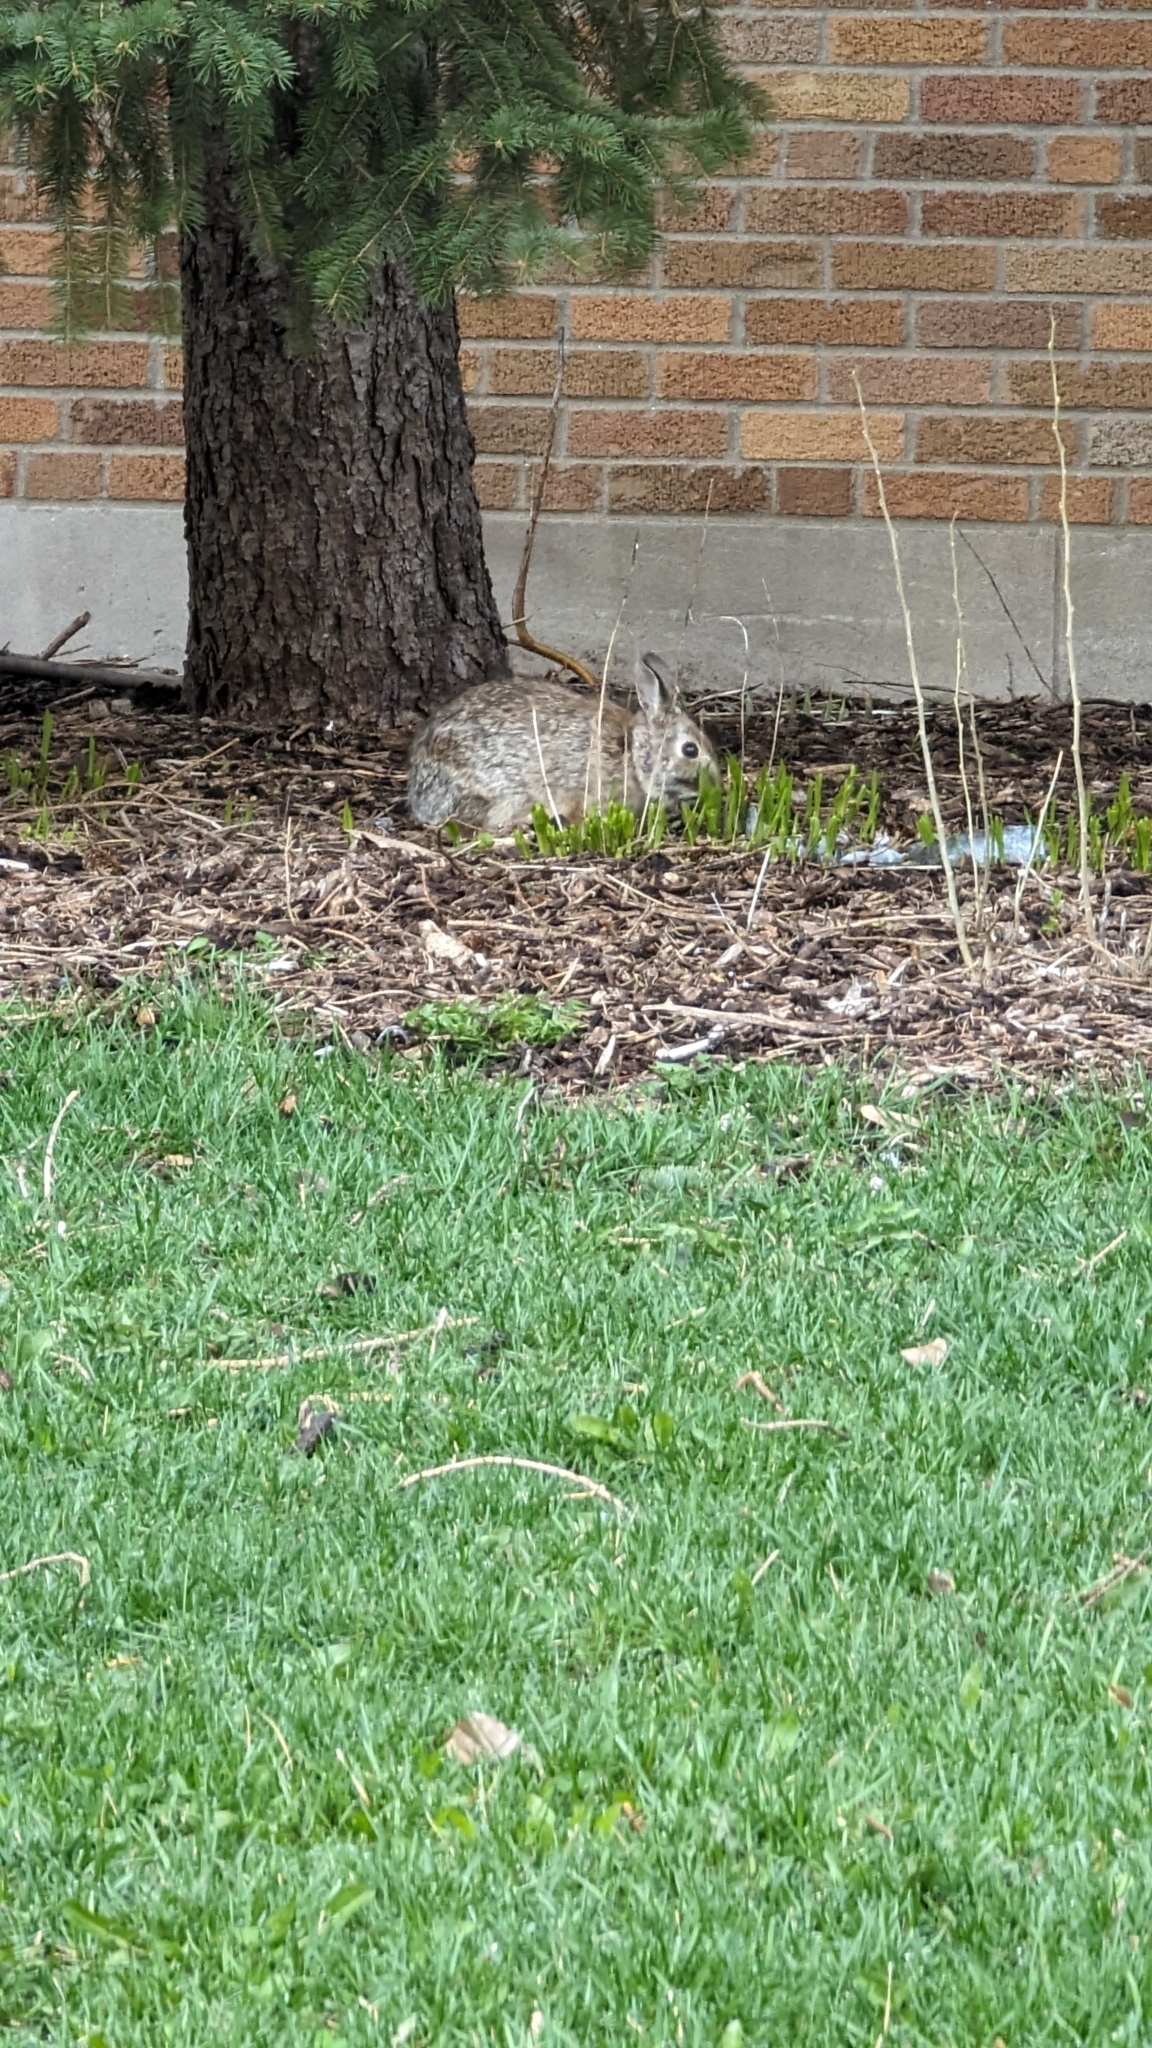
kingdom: Animalia
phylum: Chordata
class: Mammalia
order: Lagomorpha
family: Leporidae
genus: Sylvilagus
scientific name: Sylvilagus floridanus
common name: Eastern cottontail
